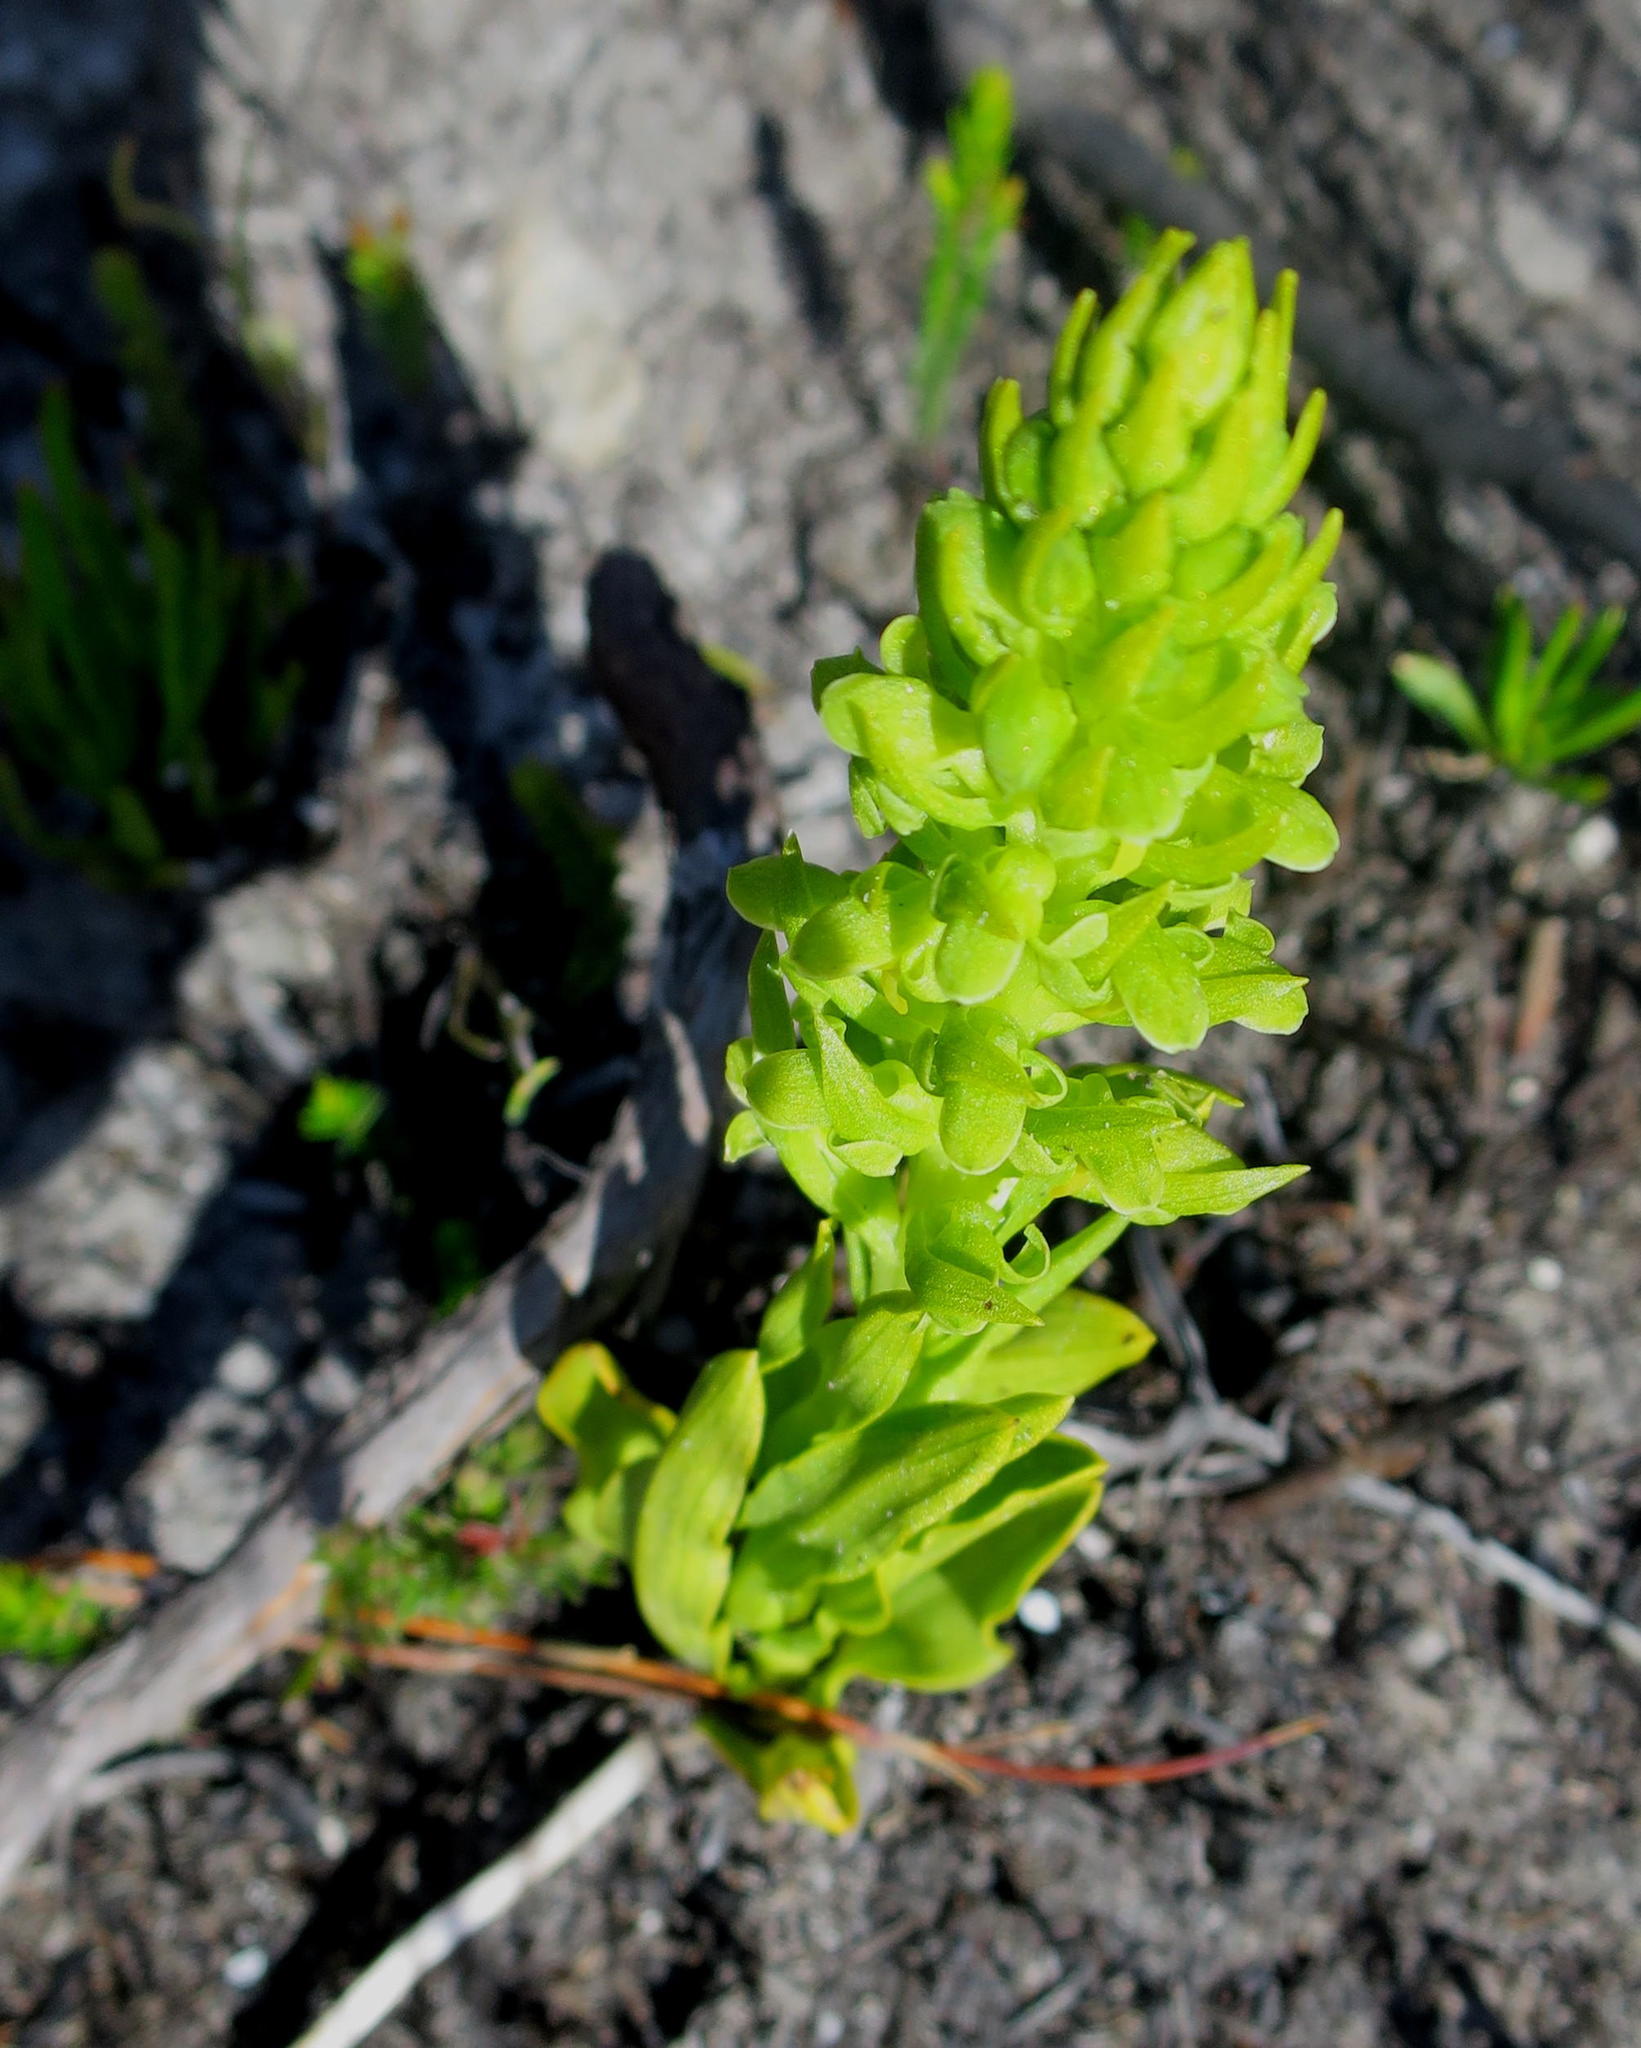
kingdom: Plantae
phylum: Tracheophyta
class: Liliopsida
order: Asparagales
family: Orchidaceae
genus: Disa
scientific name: Disa cylindrica
